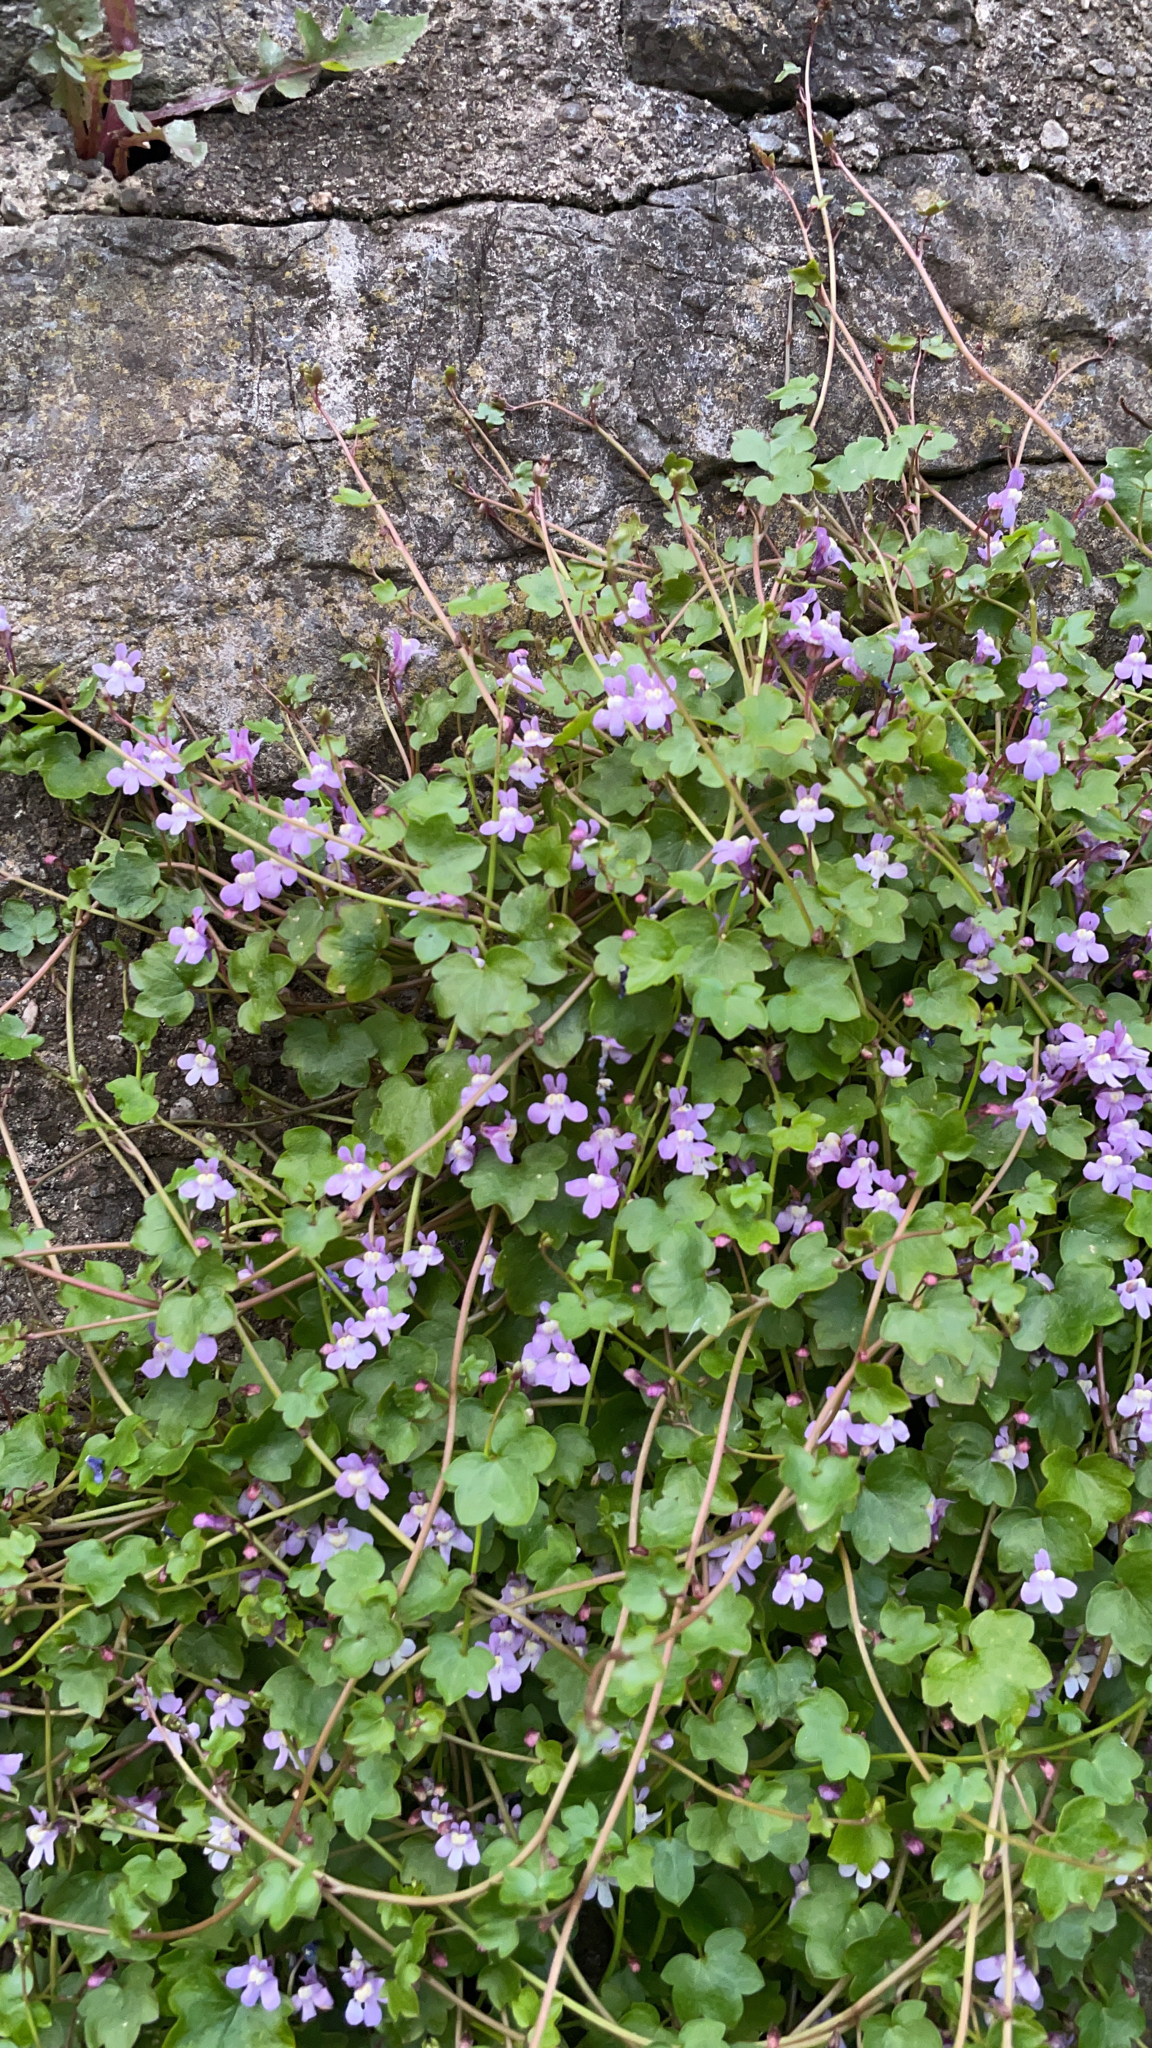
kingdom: Plantae
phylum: Tracheophyta
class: Magnoliopsida
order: Lamiales
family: Plantaginaceae
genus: Cymbalaria
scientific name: Cymbalaria muralis
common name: Ivy-leaved toadflax
